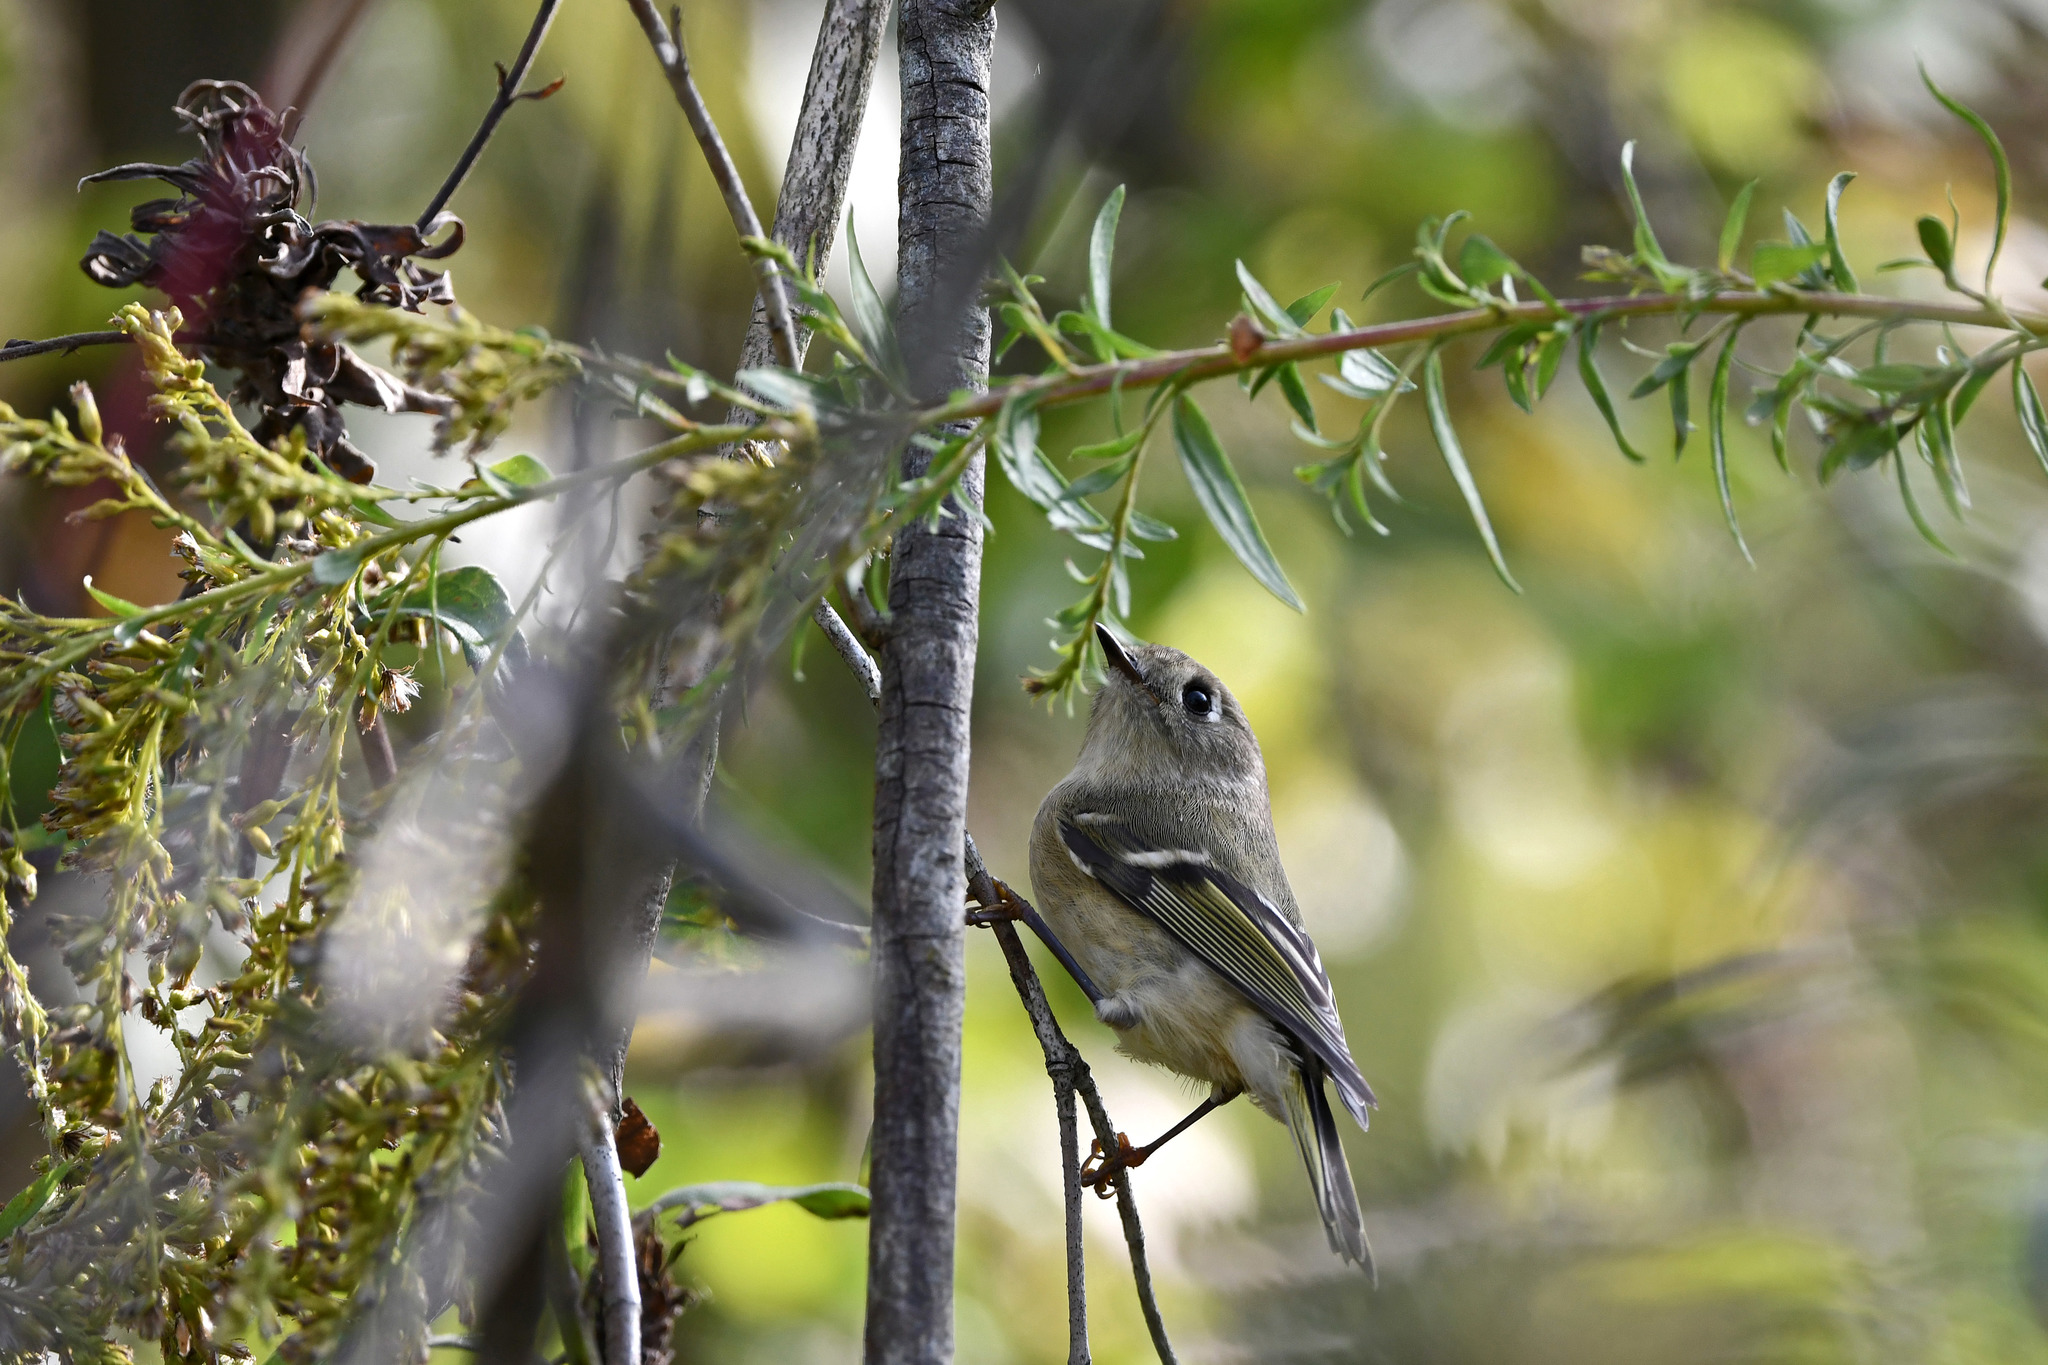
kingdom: Animalia
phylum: Chordata
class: Aves
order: Passeriformes
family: Regulidae
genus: Regulus
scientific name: Regulus calendula
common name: Ruby-crowned kinglet
